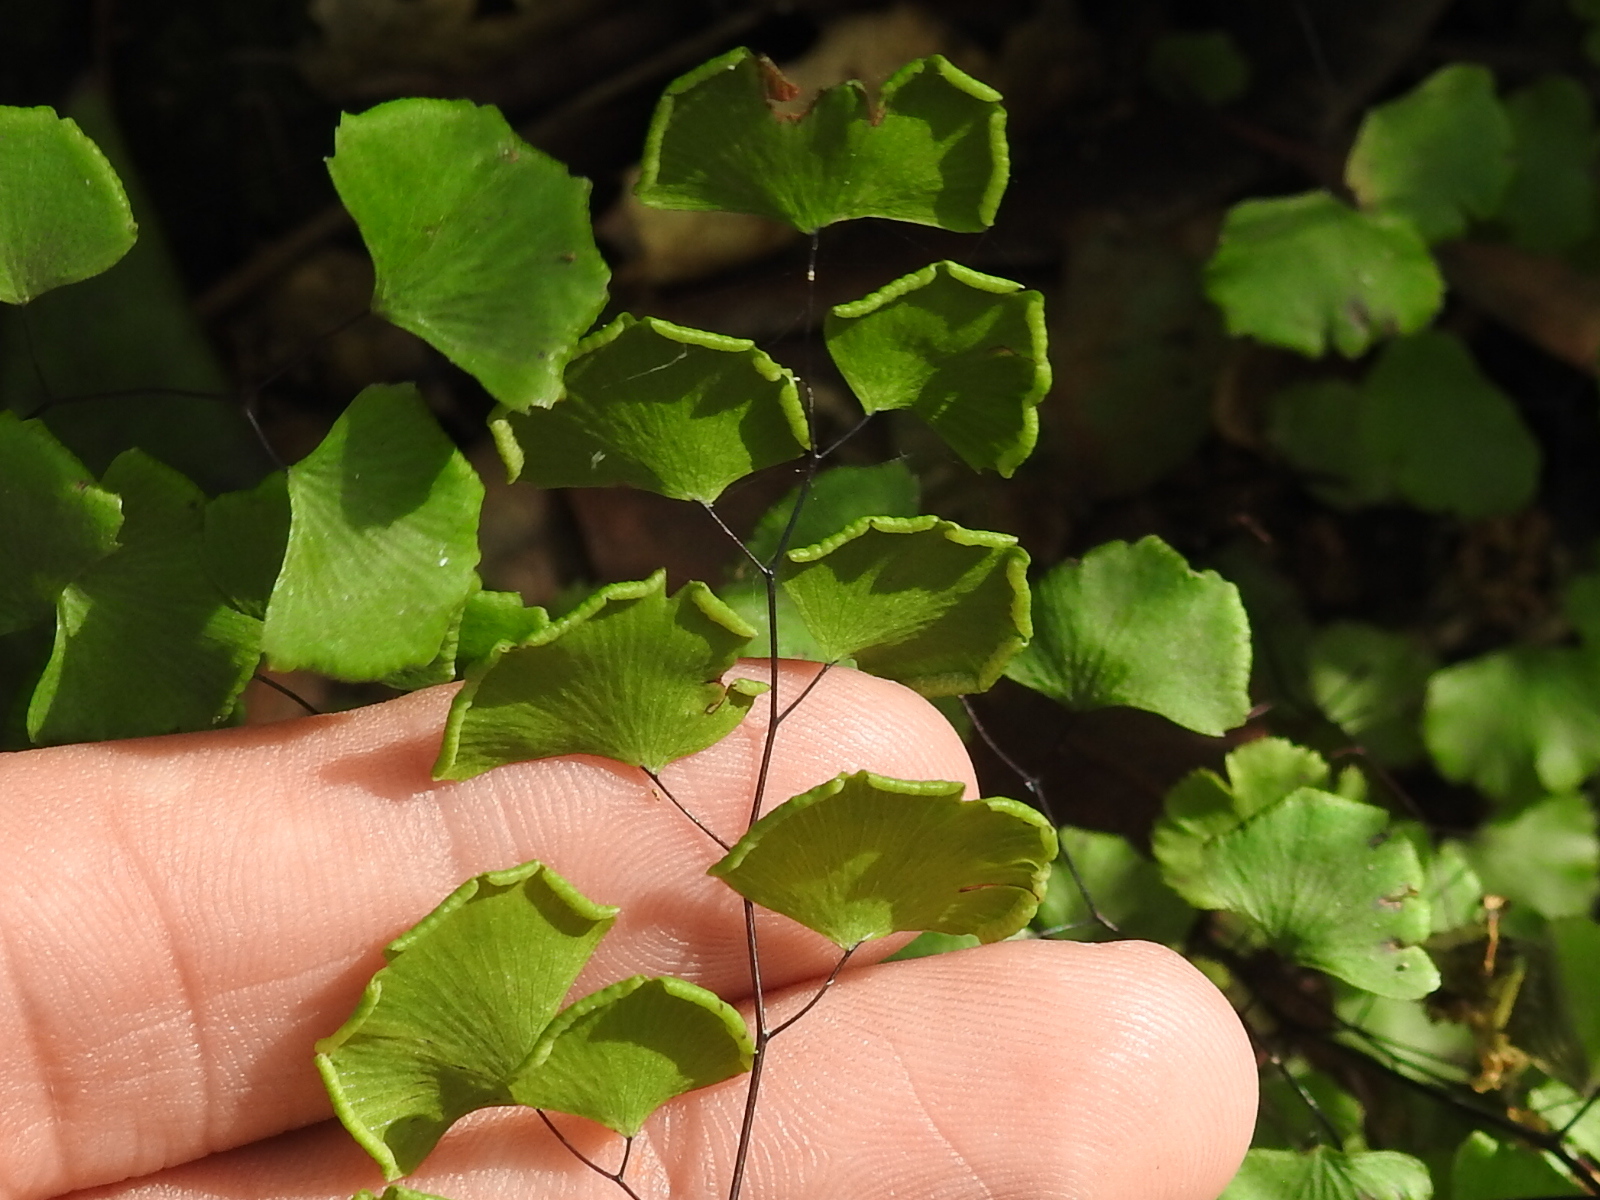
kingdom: Plantae
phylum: Tracheophyta
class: Polypodiopsida
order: Polypodiales
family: Pteridaceae
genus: Adiantum
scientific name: Adiantum jordanii
